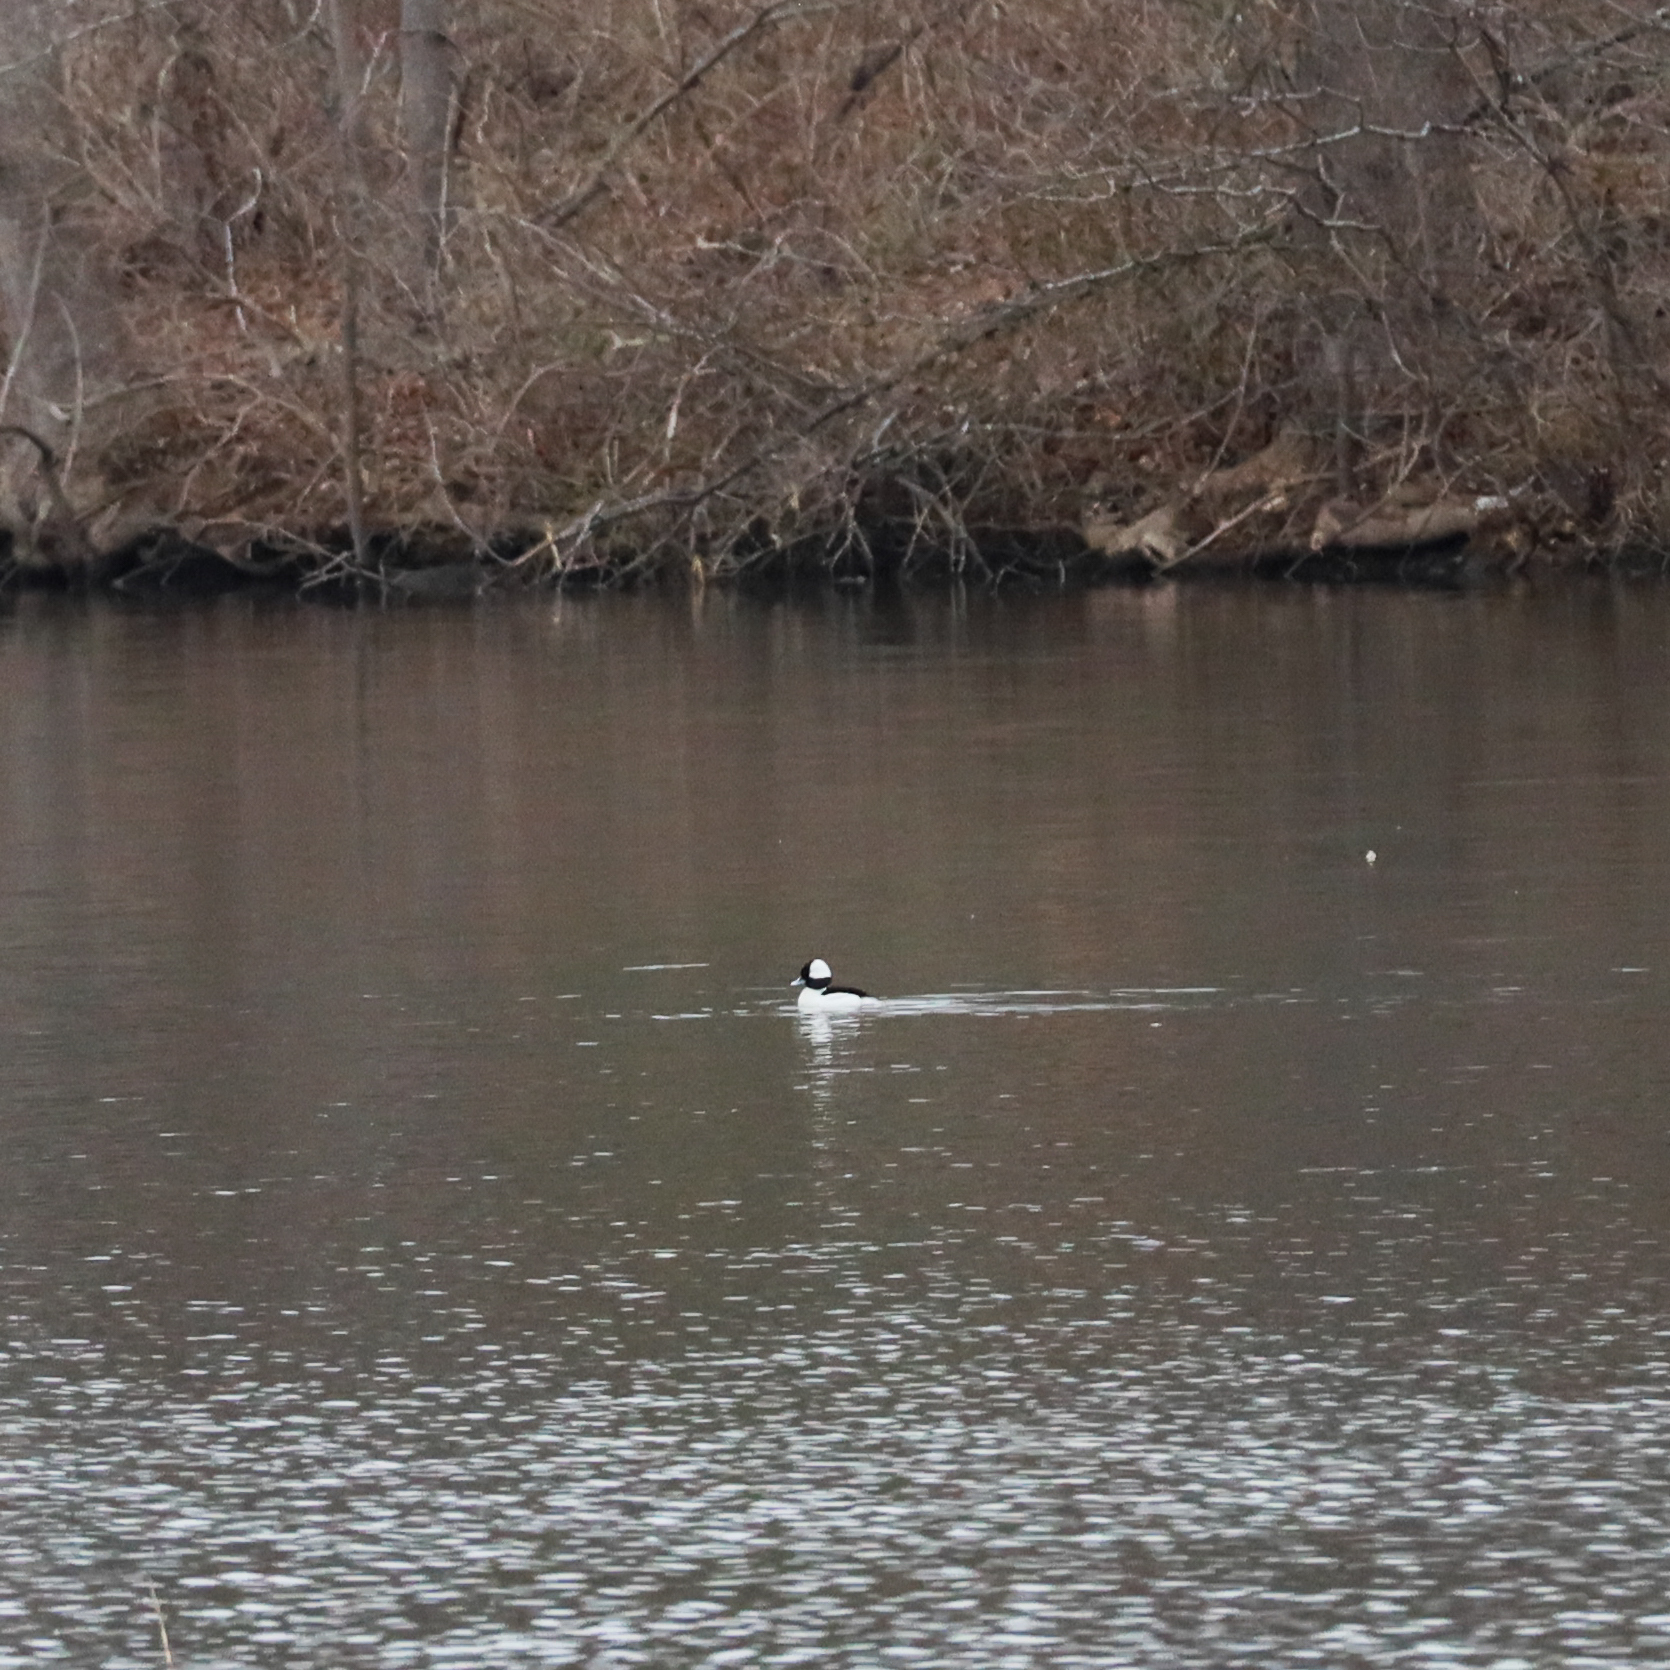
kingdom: Animalia
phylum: Chordata
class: Aves
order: Anseriformes
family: Anatidae
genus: Bucephala
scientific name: Bucephala albeola
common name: Bufflehead
